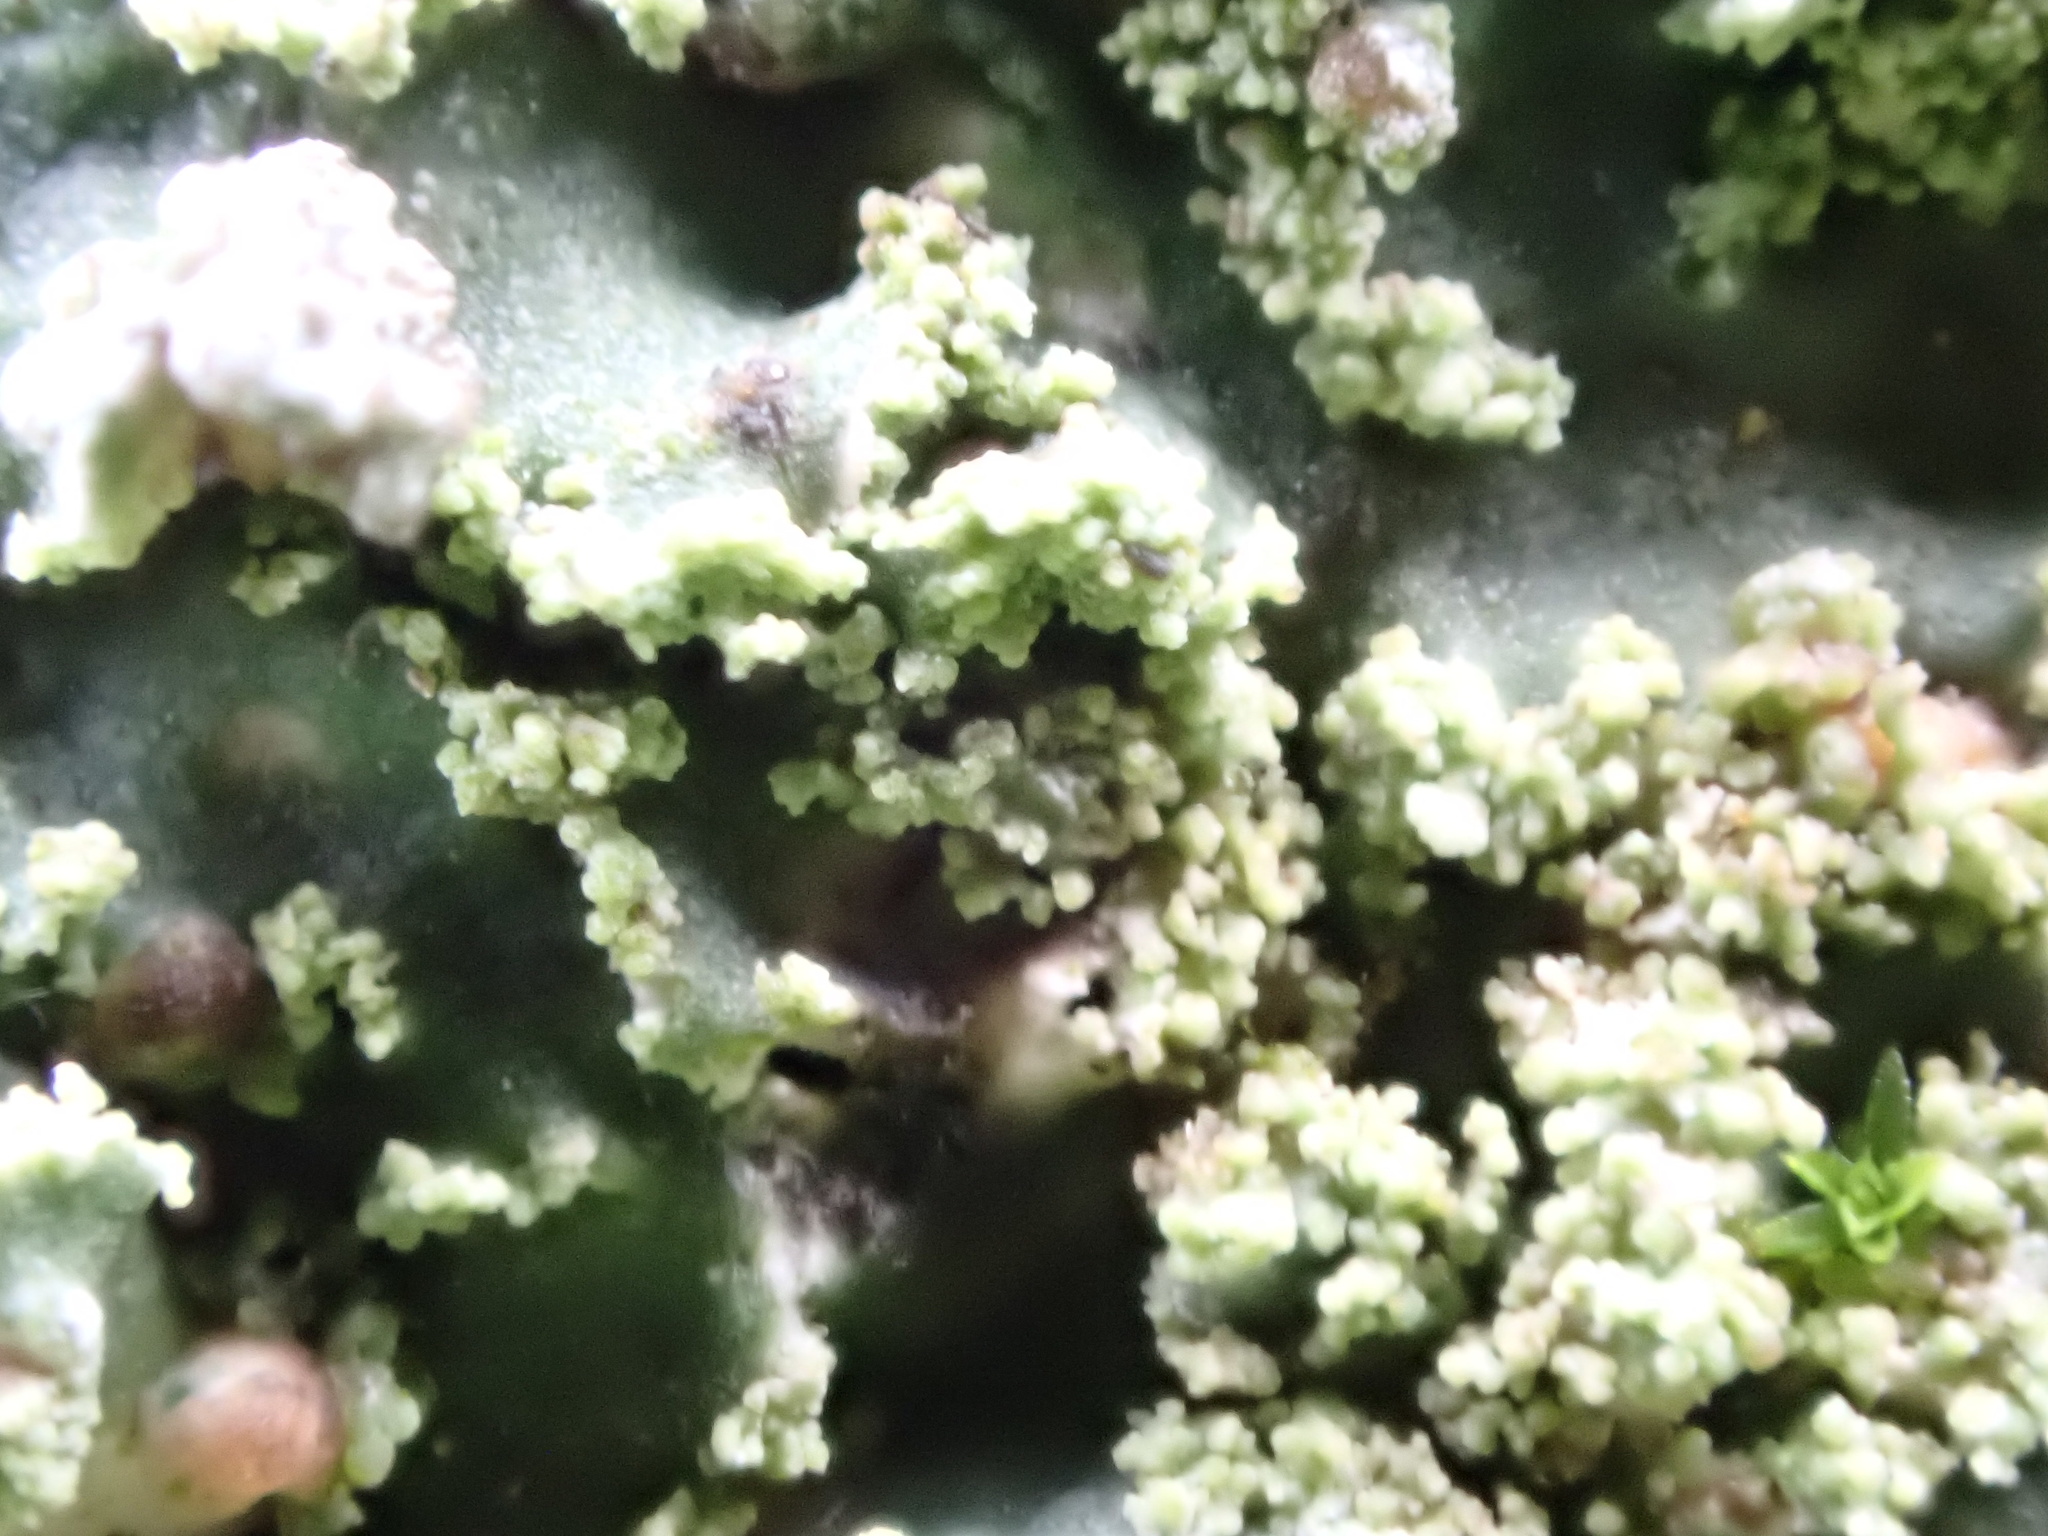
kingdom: Fungi
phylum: Ascomycota
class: Lecanoromycetes
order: Caliciales
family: Physciaceae
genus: Poeltonia
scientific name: Poeltonia grisea
